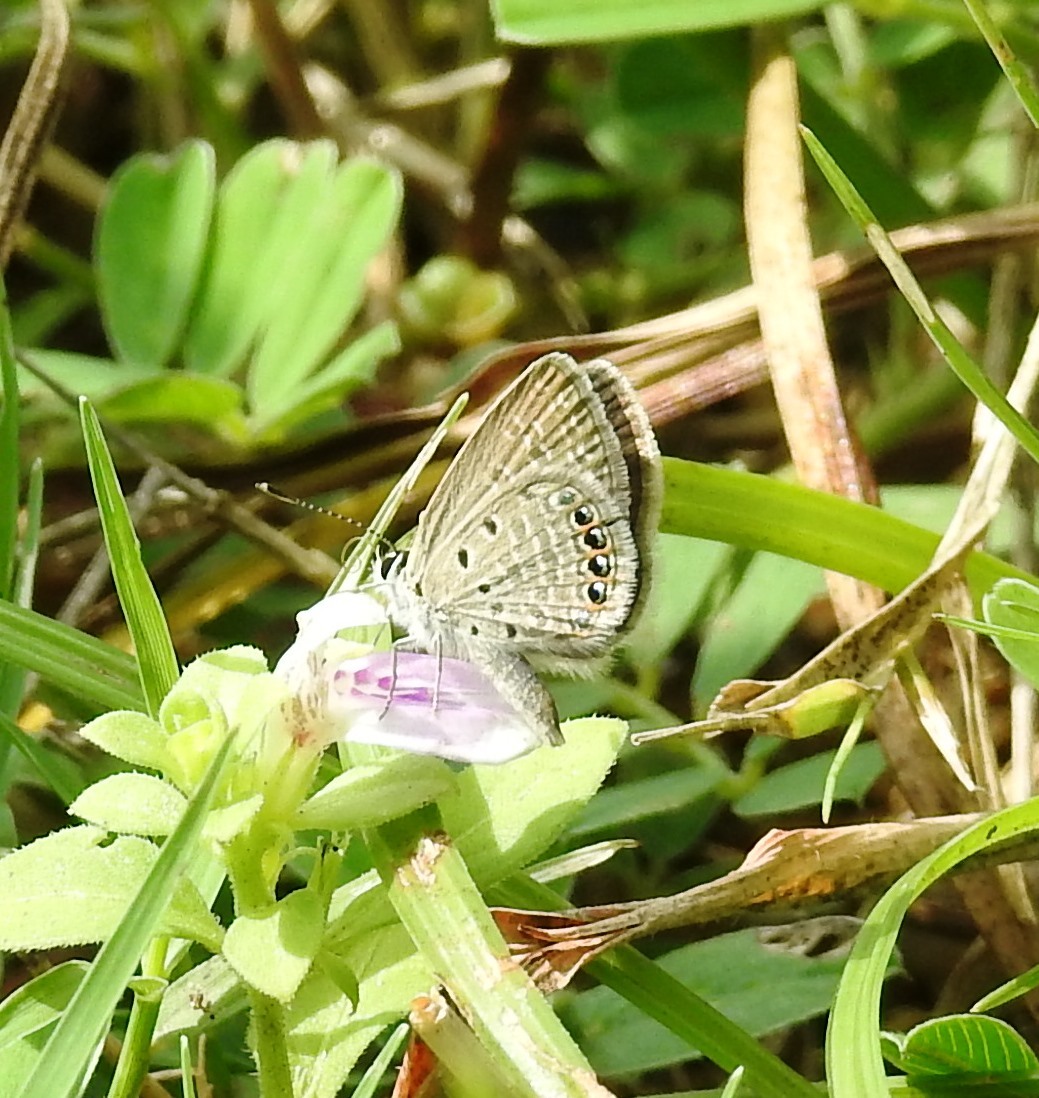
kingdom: Animalia
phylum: Arthropoda
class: Insecta
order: Lepidoptera
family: Lycaenidae
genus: Freyeria
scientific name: Freyeria putli
